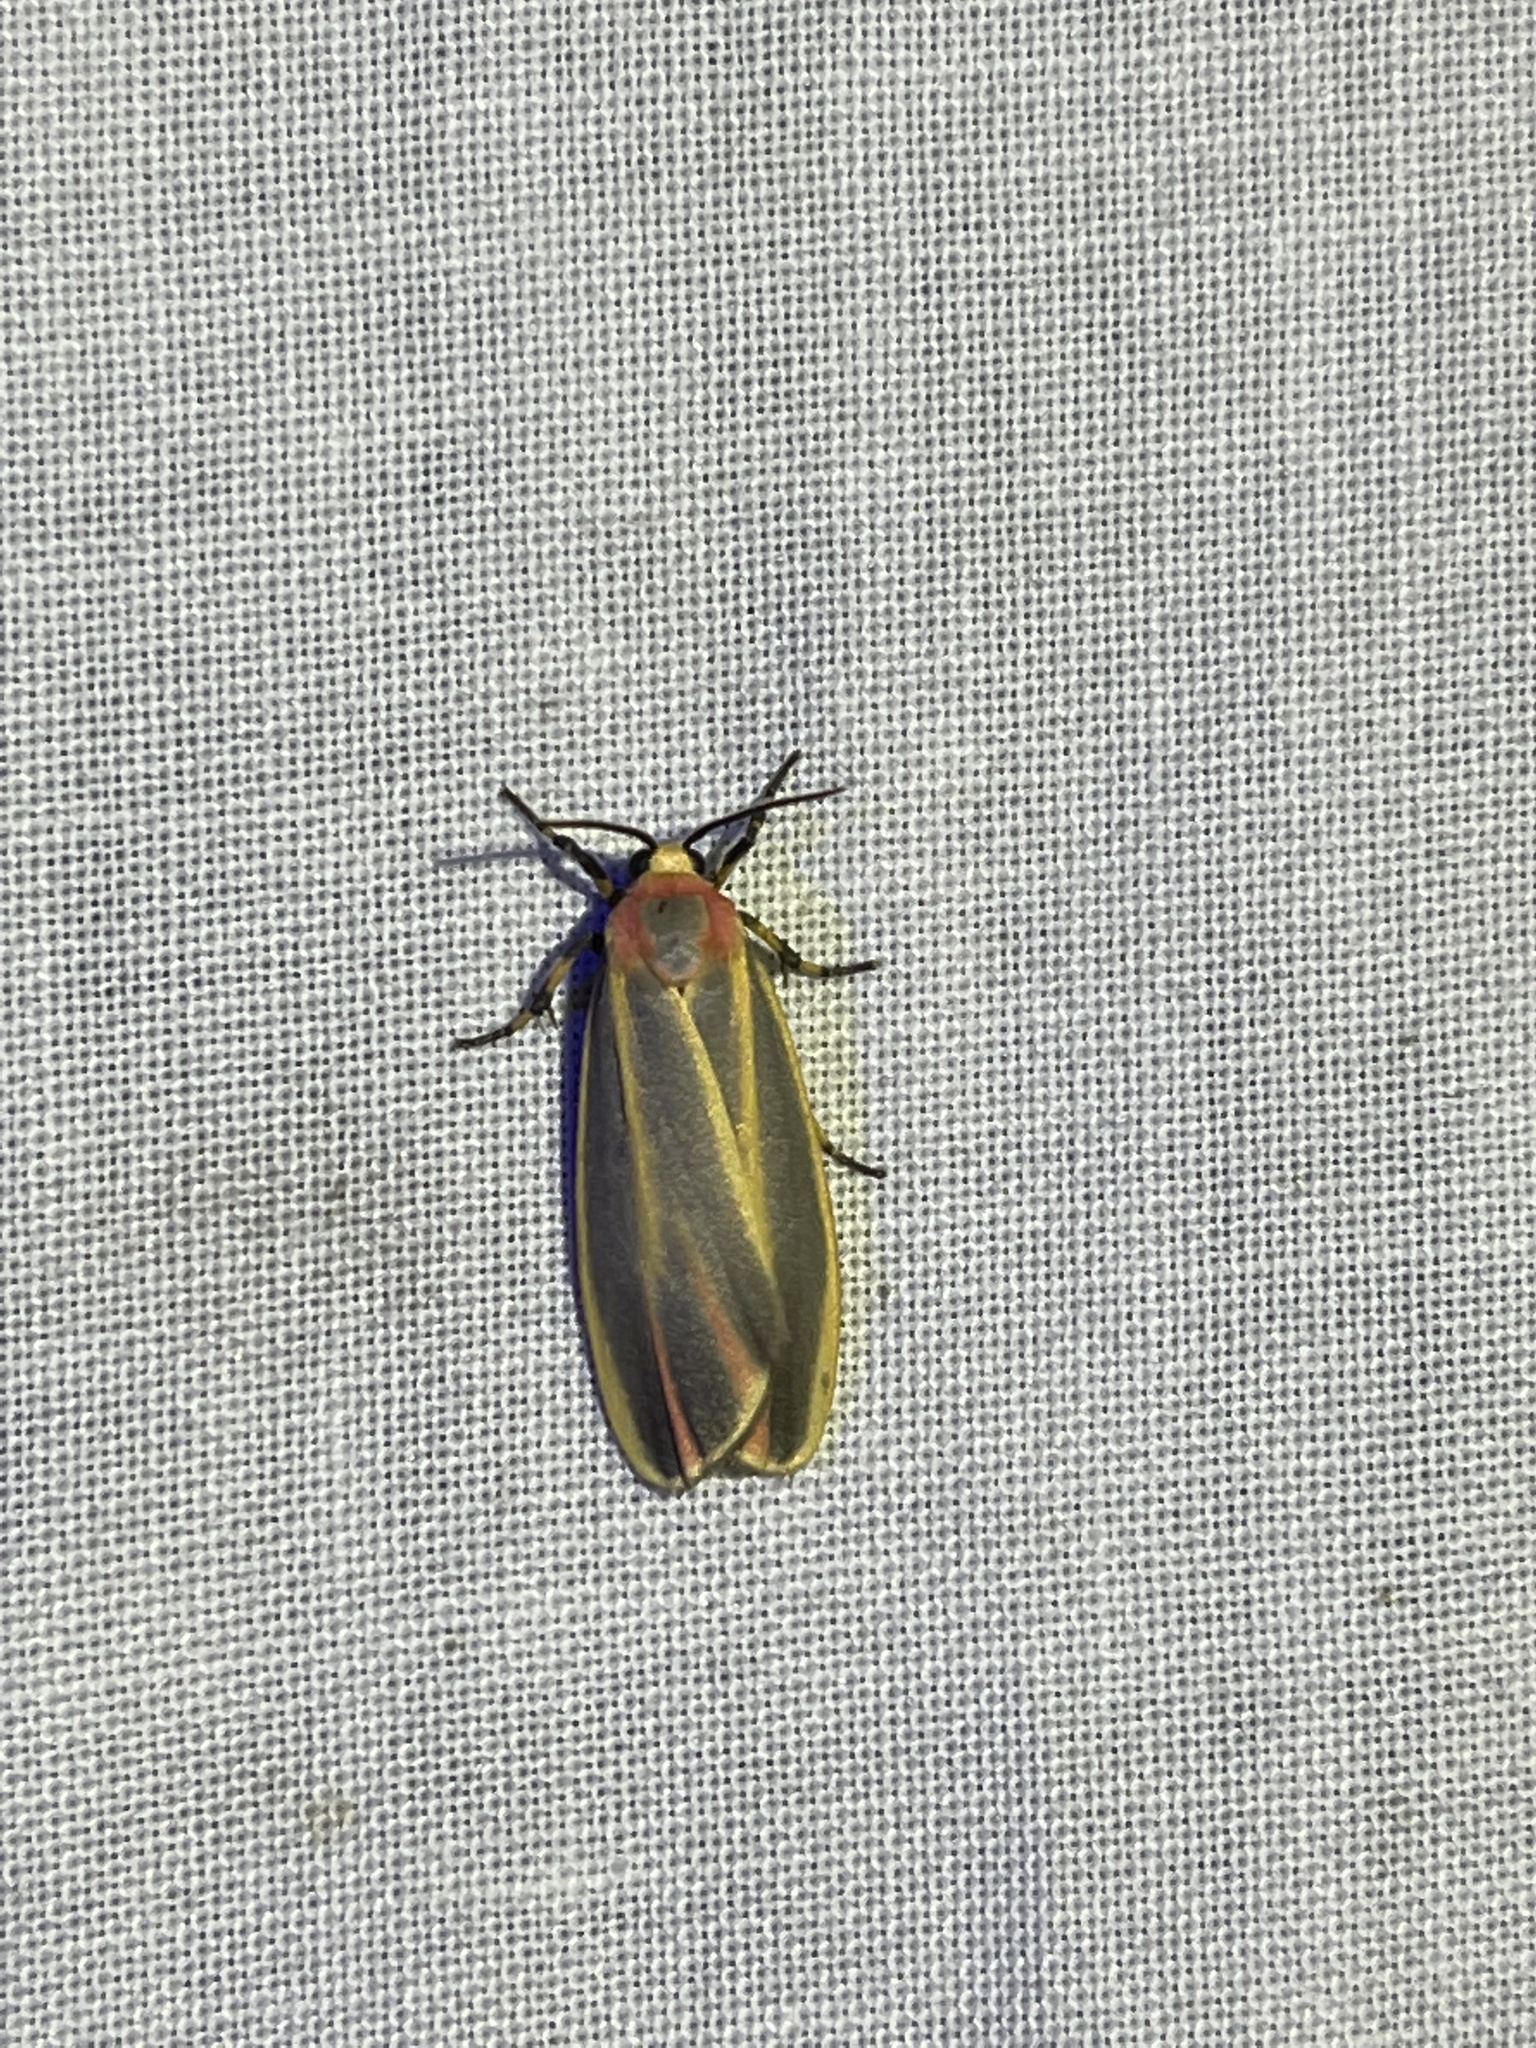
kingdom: Animalia
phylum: Arthropoda
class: Insecta
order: Lepidoptera
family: Erebidae
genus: Hypoprepia
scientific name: Hypoprepia fucosa
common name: Painted lichen moth
